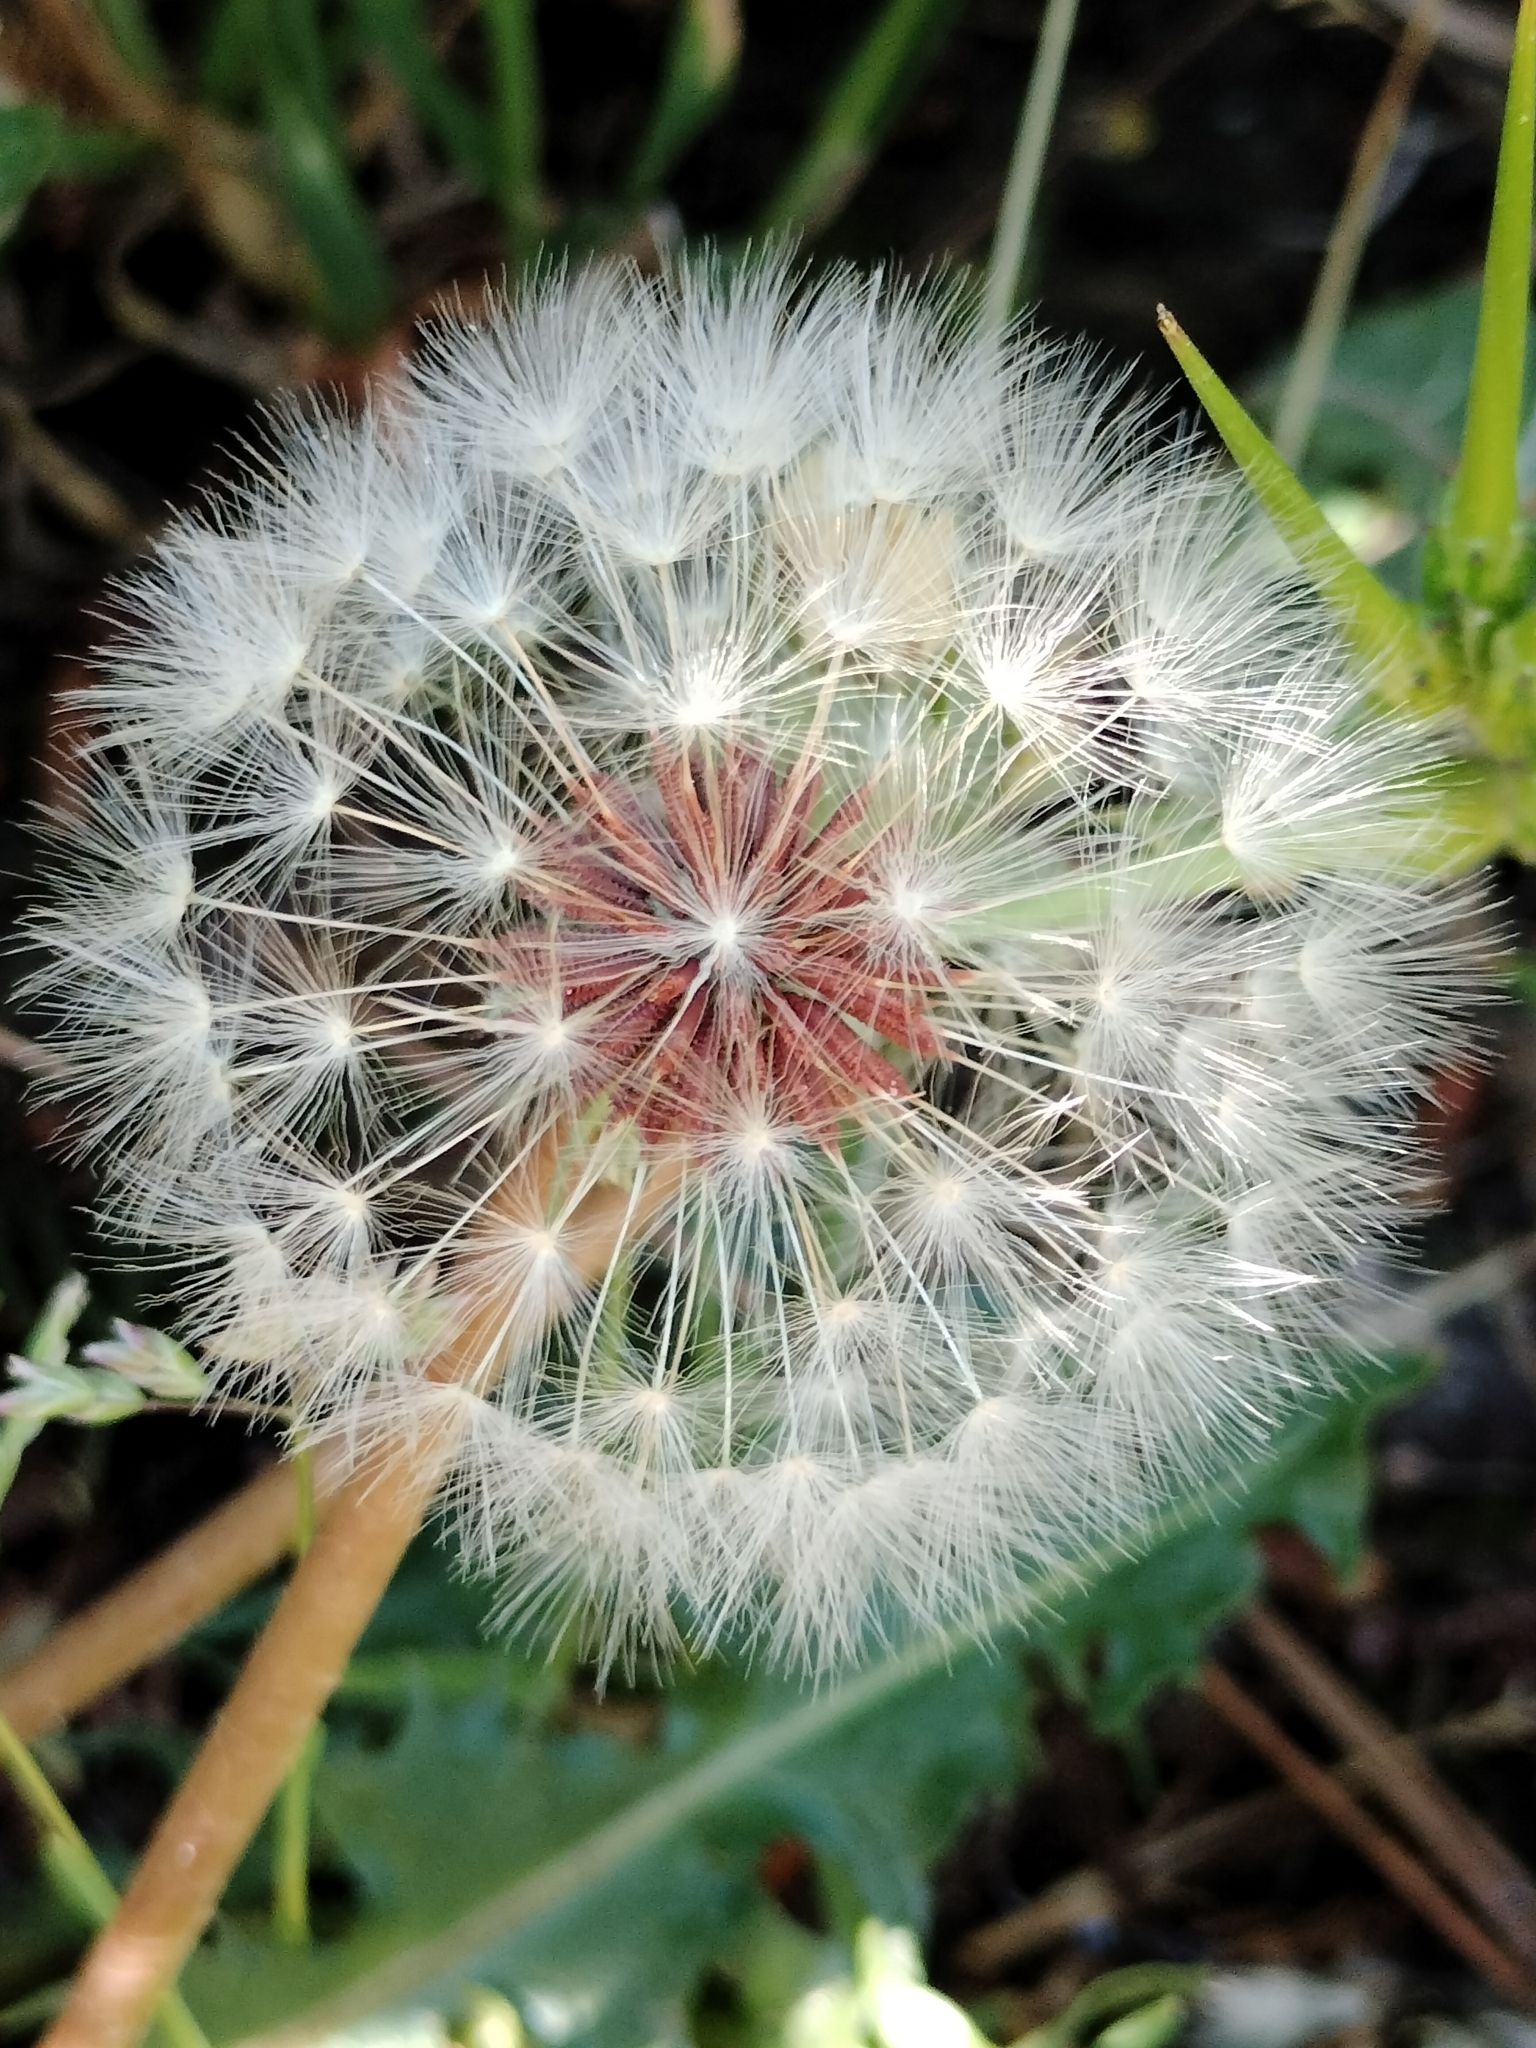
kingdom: Plantae
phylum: Tracheophyta
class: Magnoliopsida
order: Asterales
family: Asteraceae
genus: Taraxacum
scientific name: Taraxacum erythrospermum
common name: Rock dandelion
